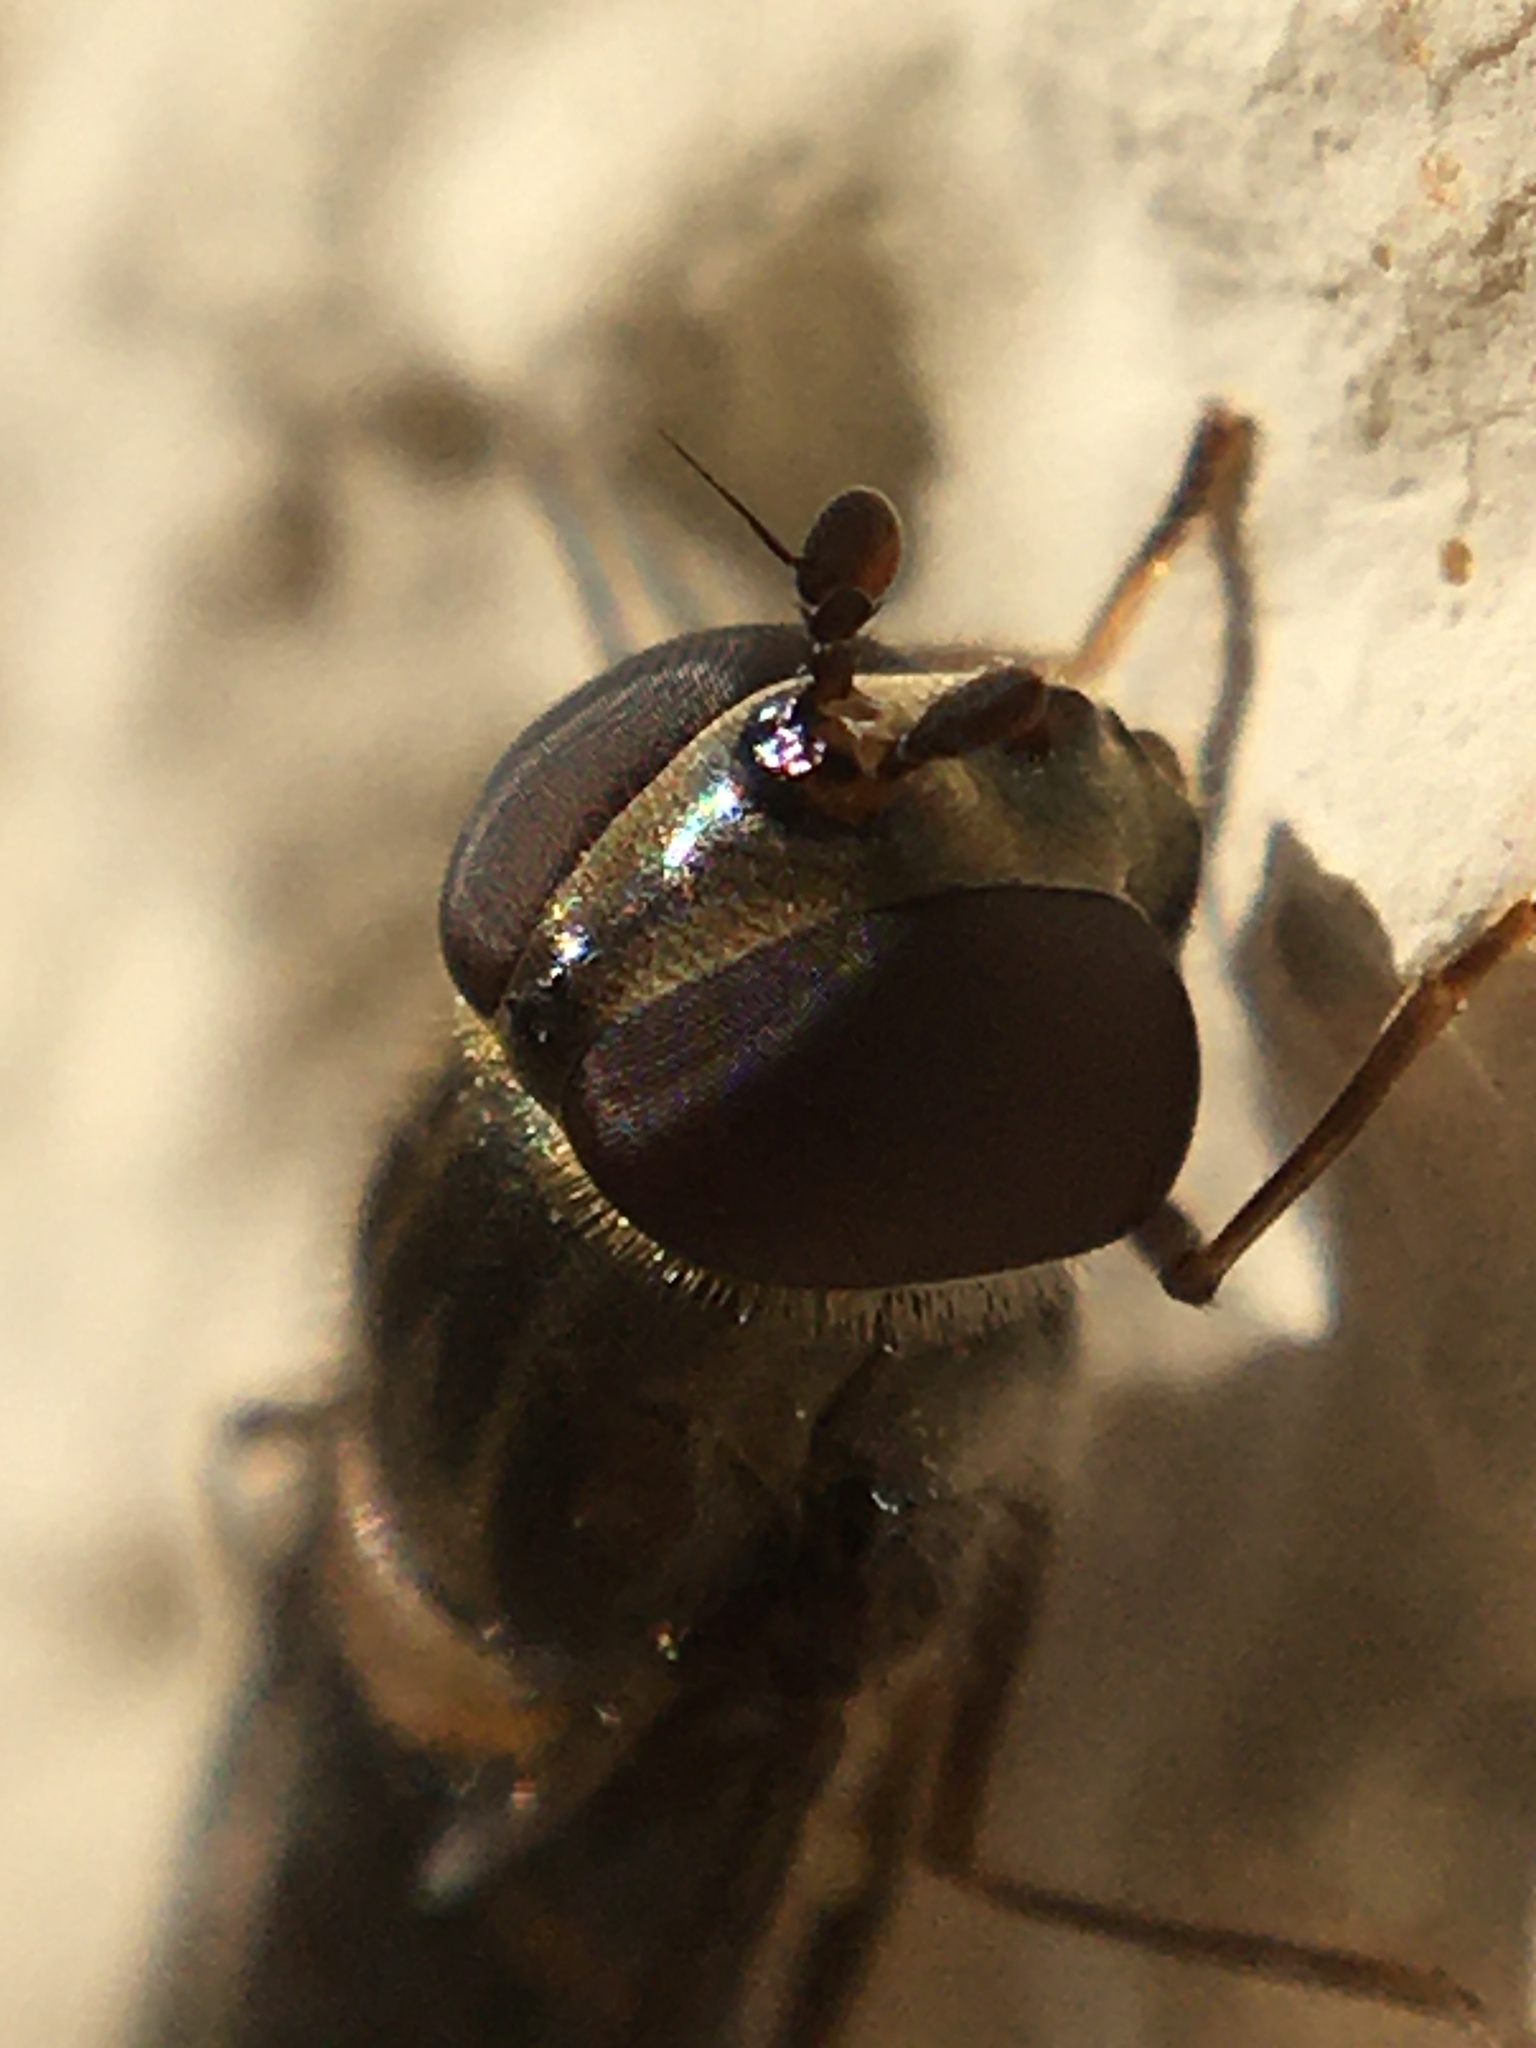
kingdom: Animalia
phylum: Arthropoda
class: Insecta
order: Diptera
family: Syrphidae
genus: Episyrphus
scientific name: Episyrphus balteatus
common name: Marmalade hoverfly
